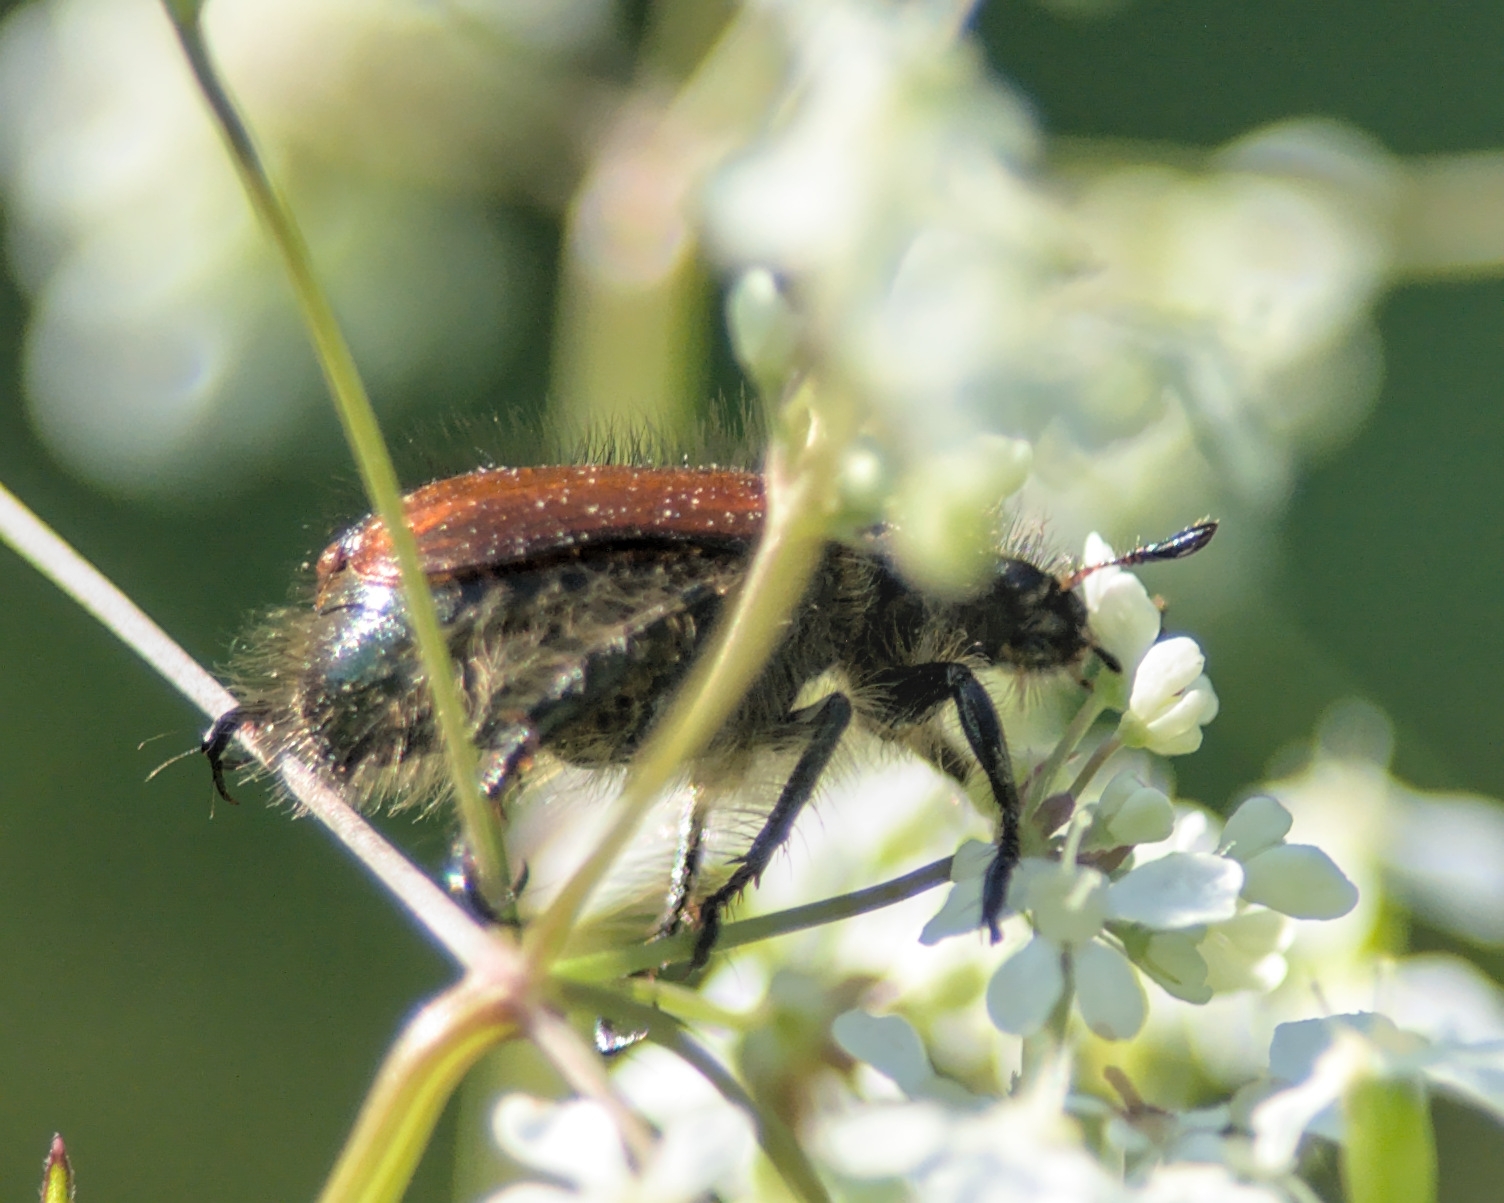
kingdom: Animalia
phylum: Arthropoda
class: Insecta
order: Coleoptera
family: Scarabaeidae
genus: Phyllopertha
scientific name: Phyllopertha horticola
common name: Garden chafer
